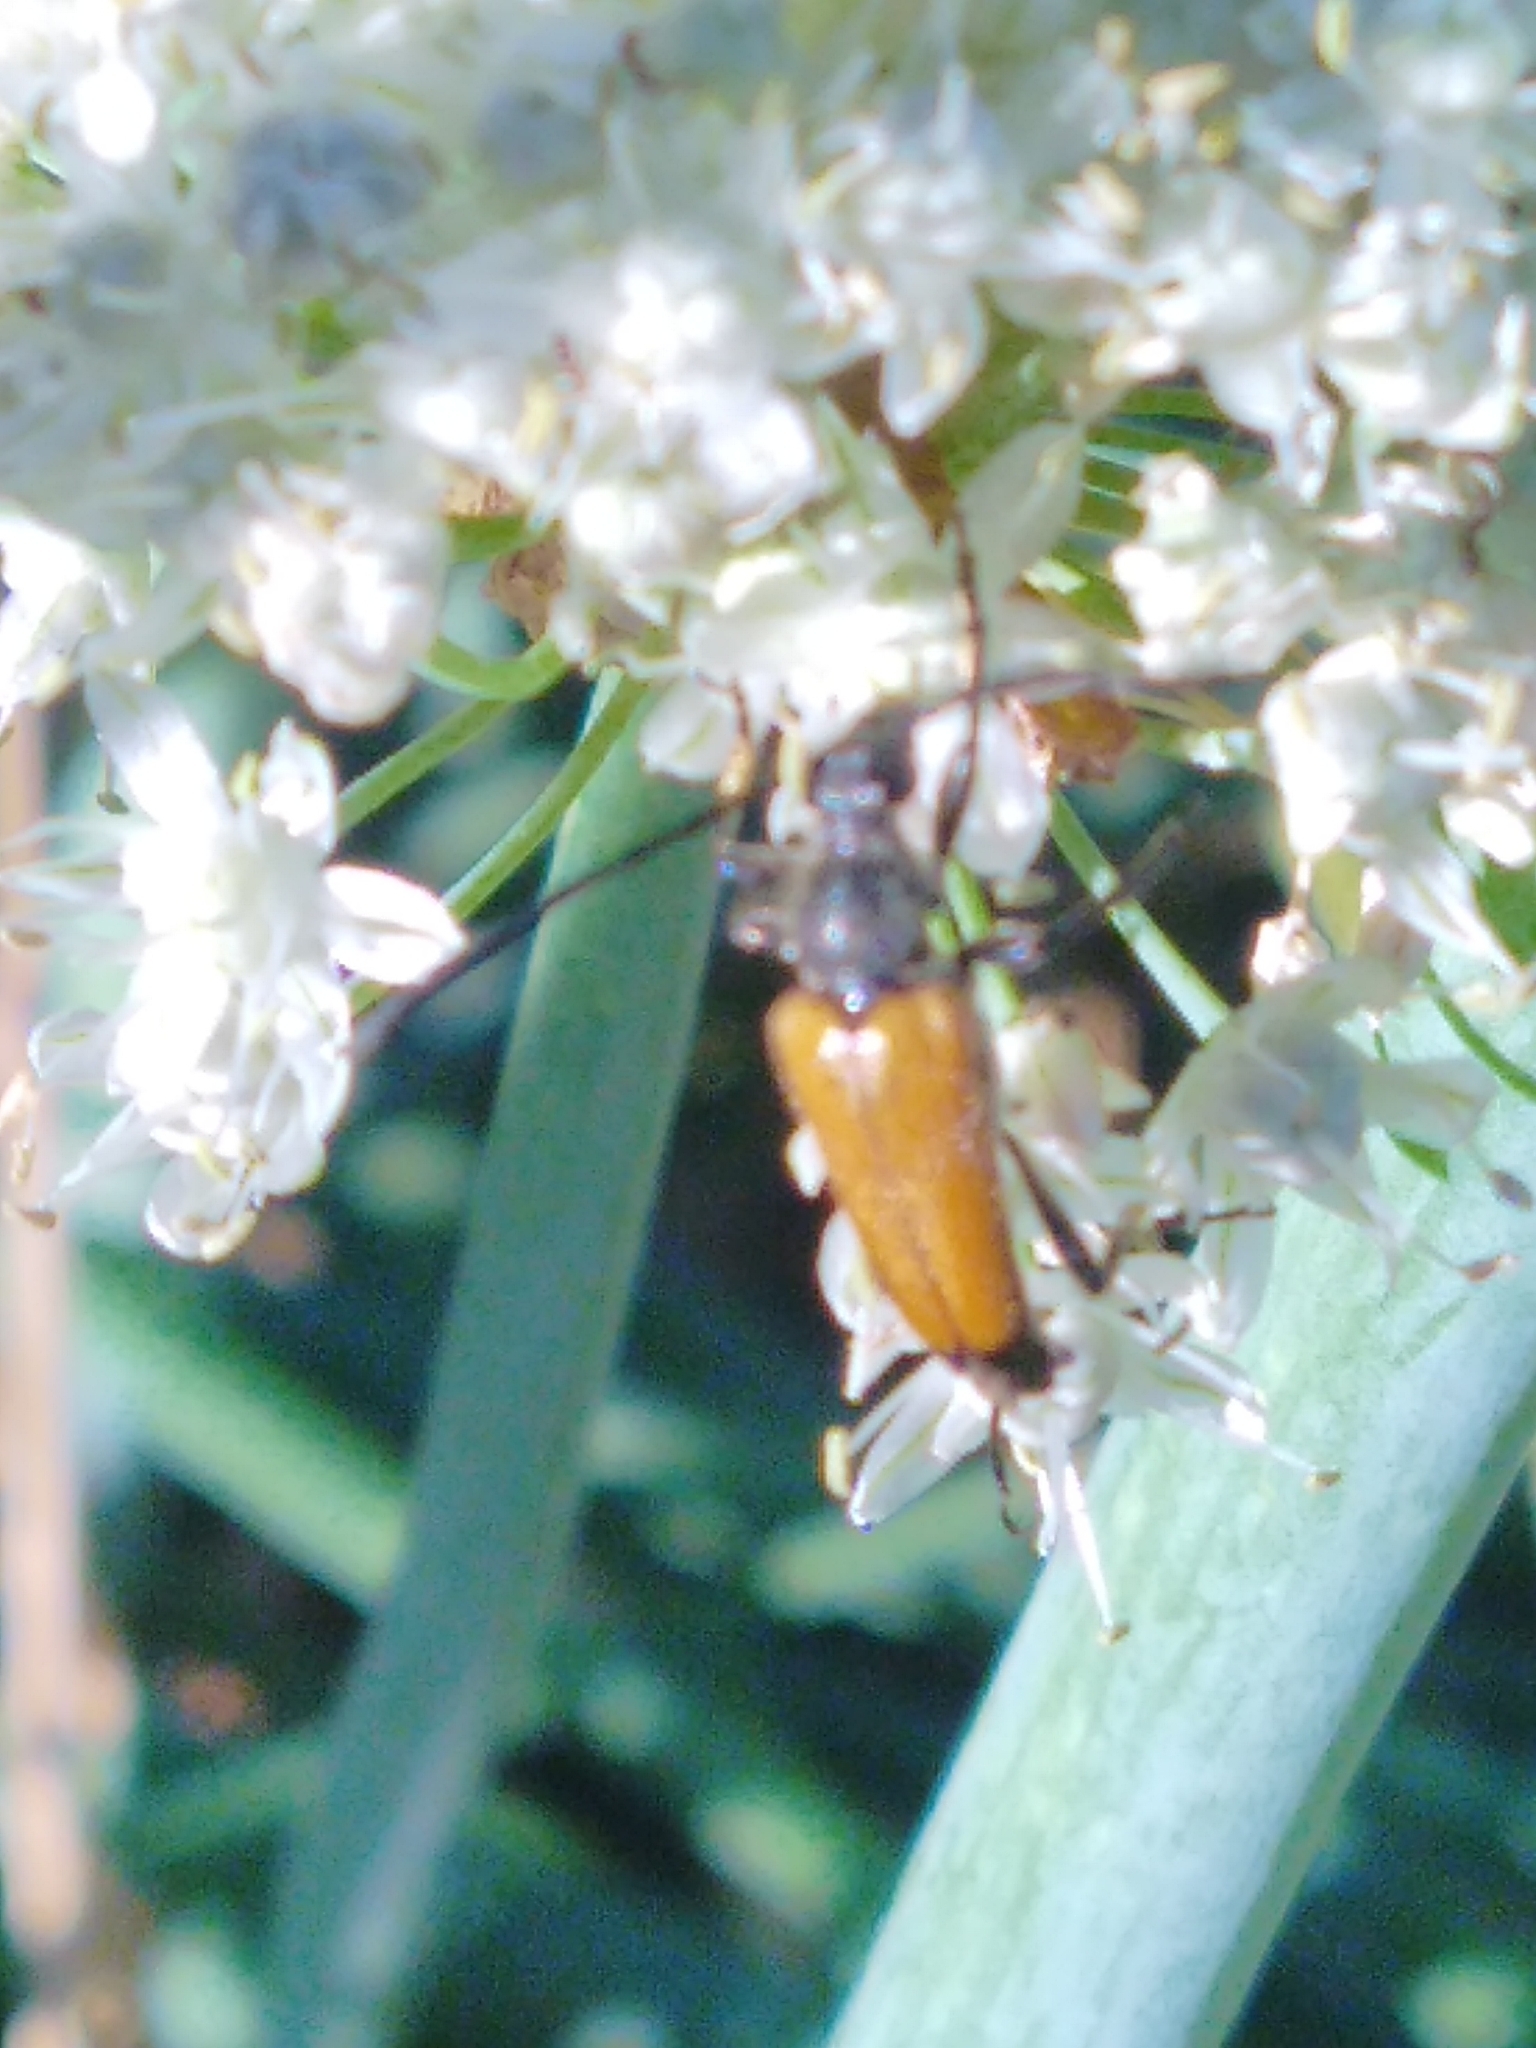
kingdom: Animalia
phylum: Arthropoda
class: Insecta
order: Coleoptera
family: Cerambycidae
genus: Paracorymbia
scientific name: Paracorymbia fulva
